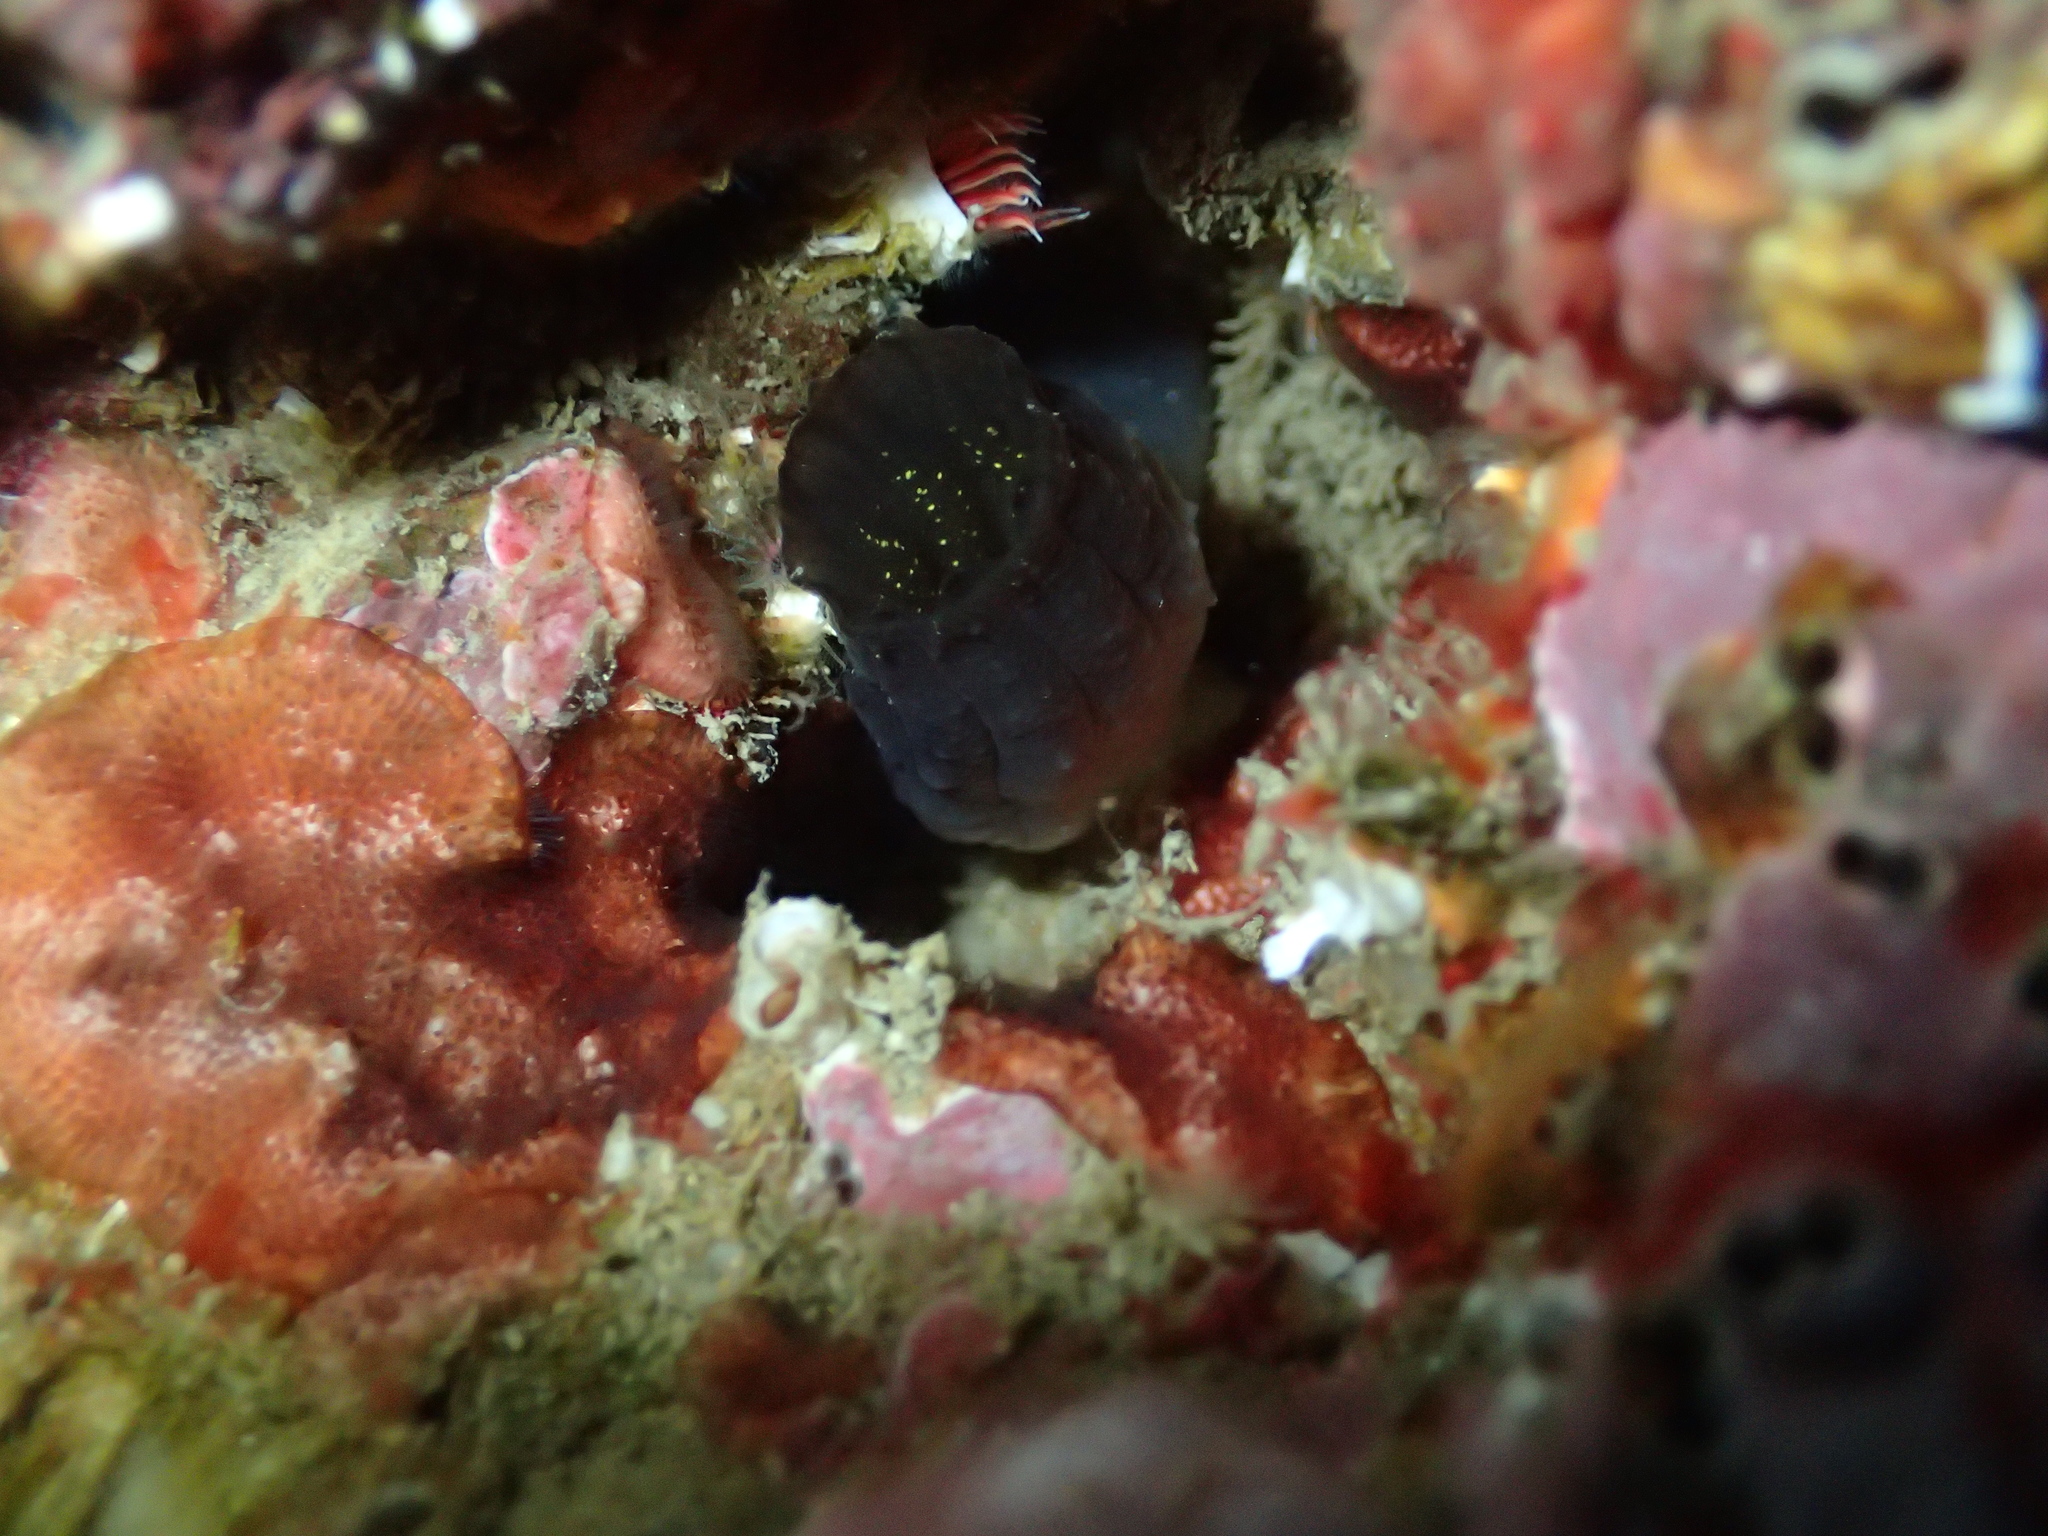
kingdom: Animalia
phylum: Chordata
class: Ascidiacea
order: Phlebobranchia
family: Ascidiidae
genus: Phallusia
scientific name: Phallusia fumigata
